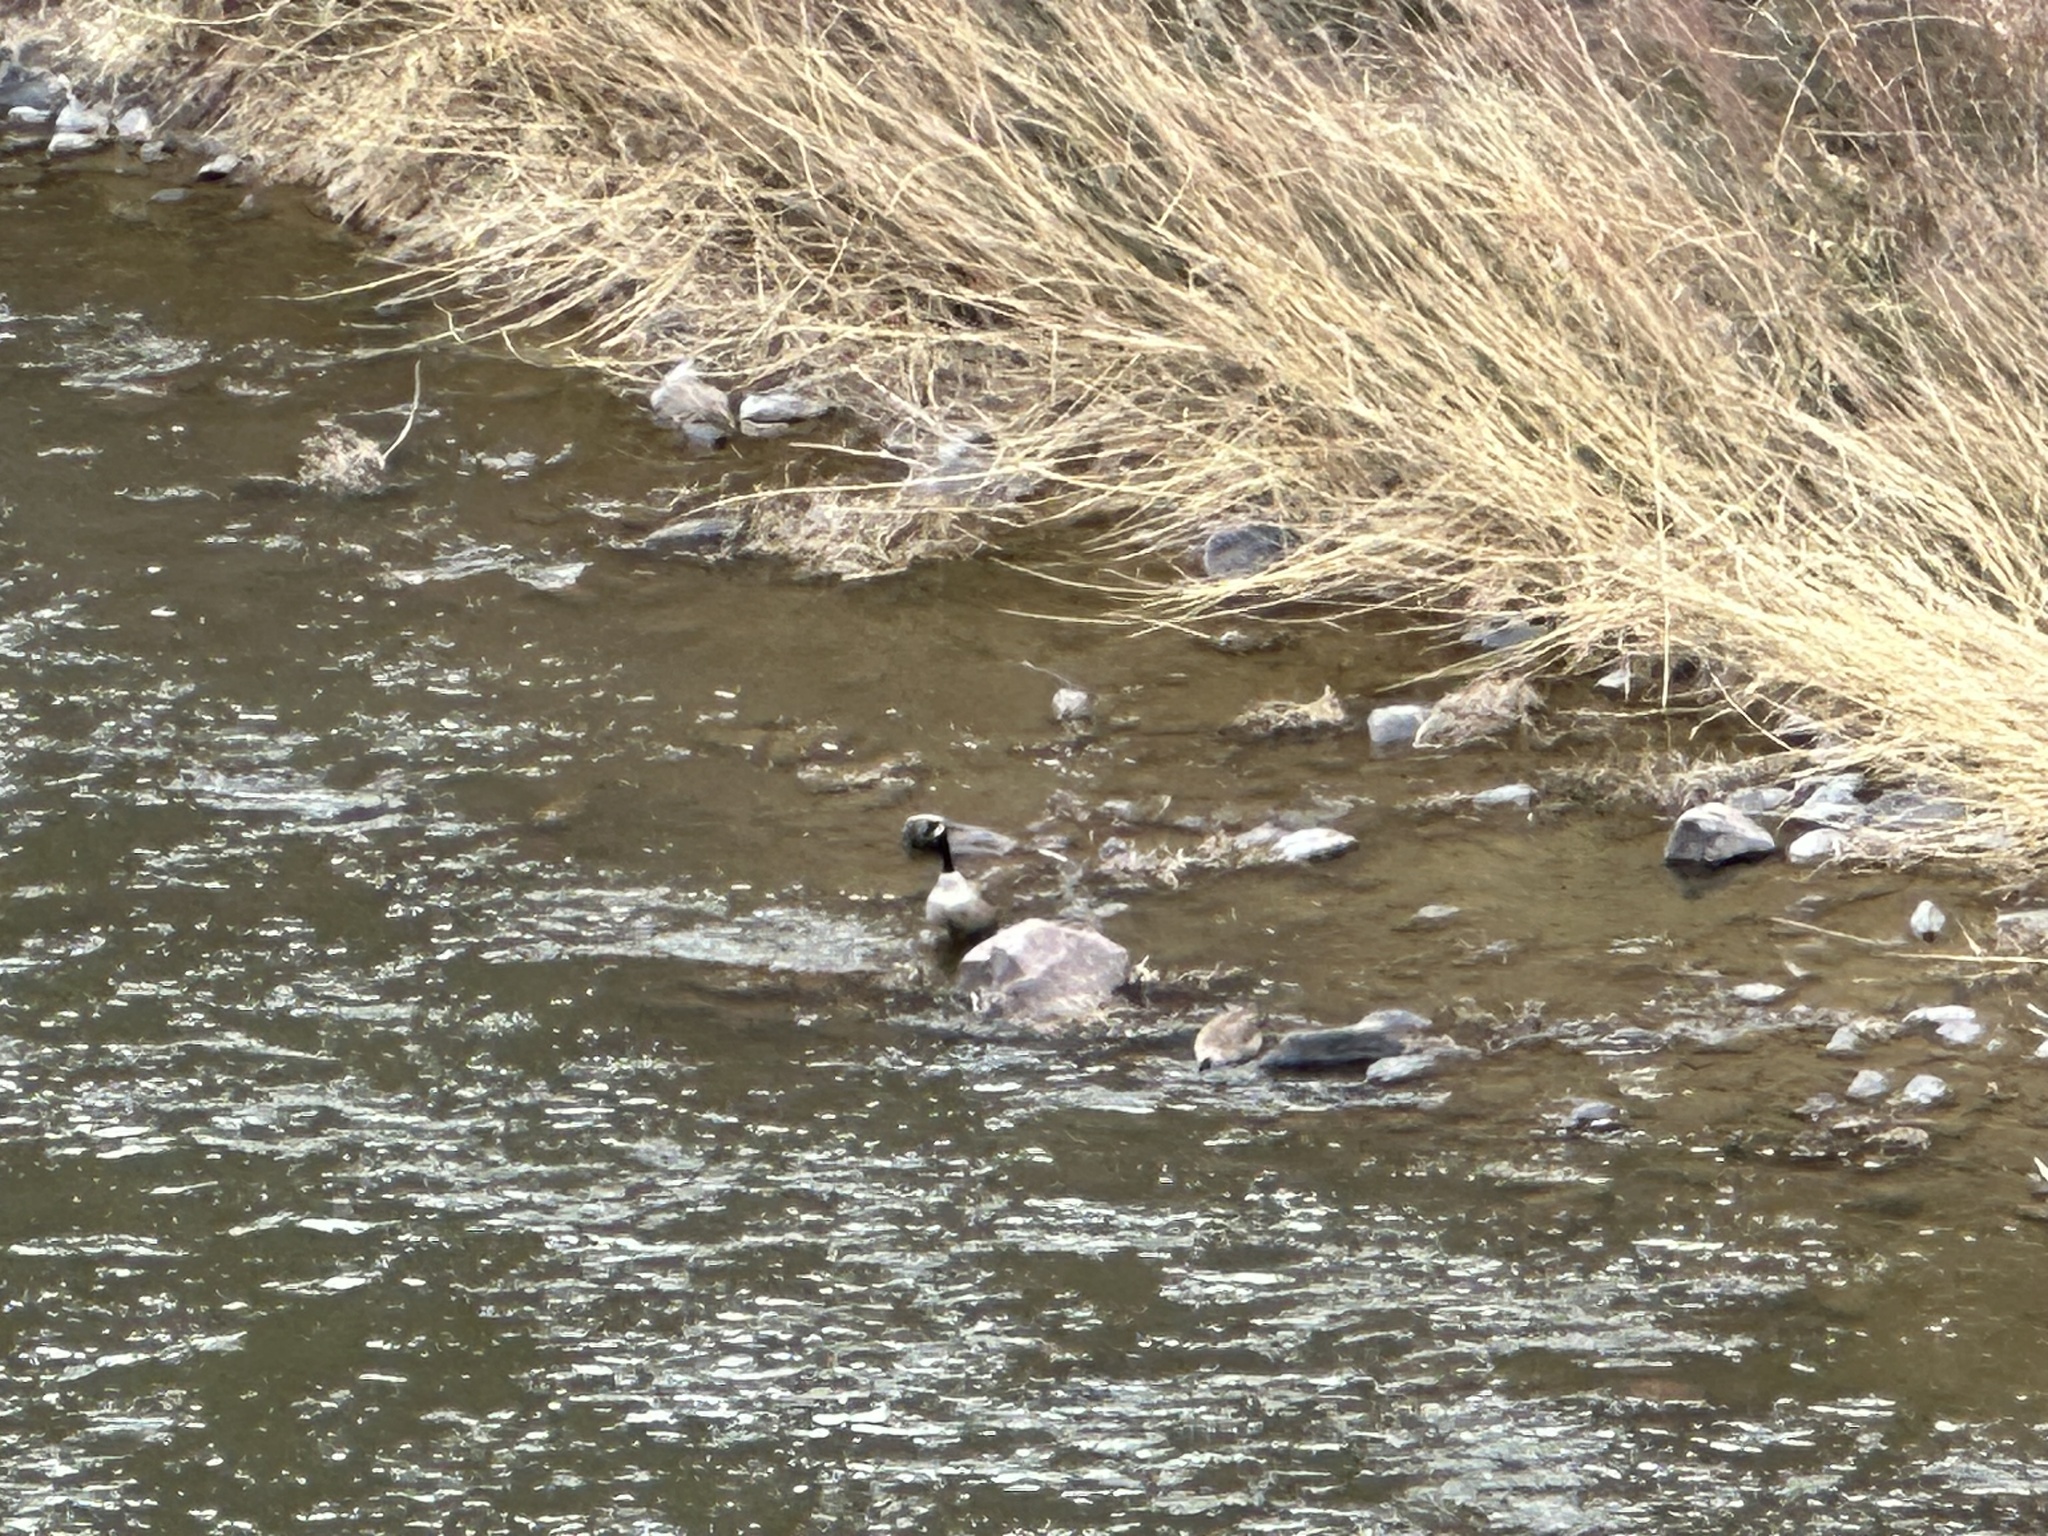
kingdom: Animalia
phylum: Chordata
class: Aves
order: Anseriformes
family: Anatidae
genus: Branta
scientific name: Branta canadensis
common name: Canada goose
